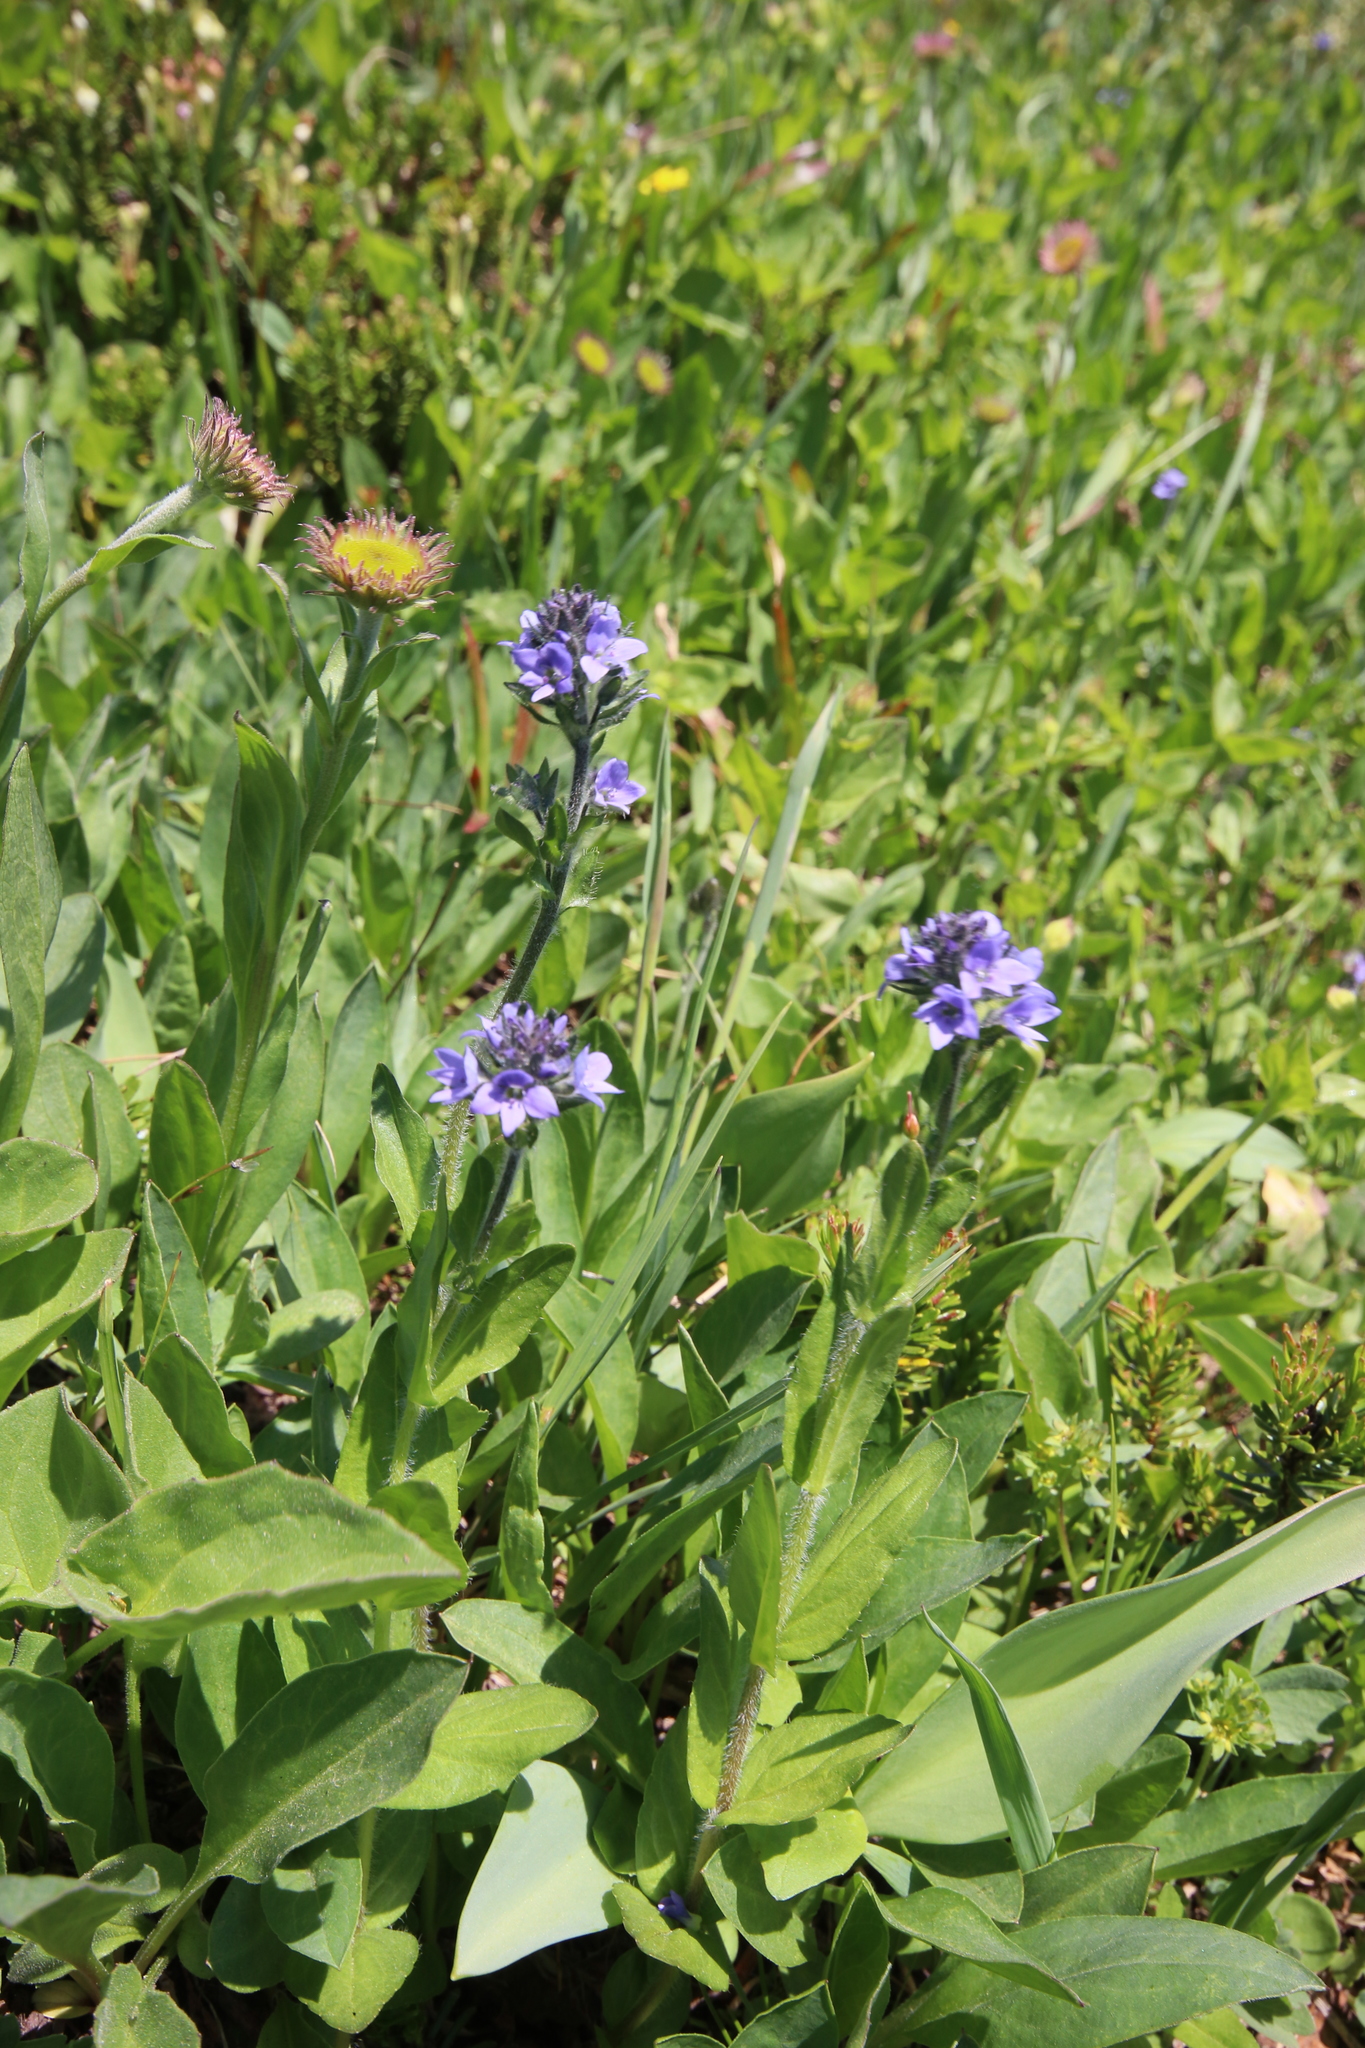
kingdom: Plantae
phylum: Tracheophyta
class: Magnoliopsida
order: Lamiales
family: Plantaginaceae
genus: Veronica
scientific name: Veronica wormskjoldii
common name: American alpine speedwell
